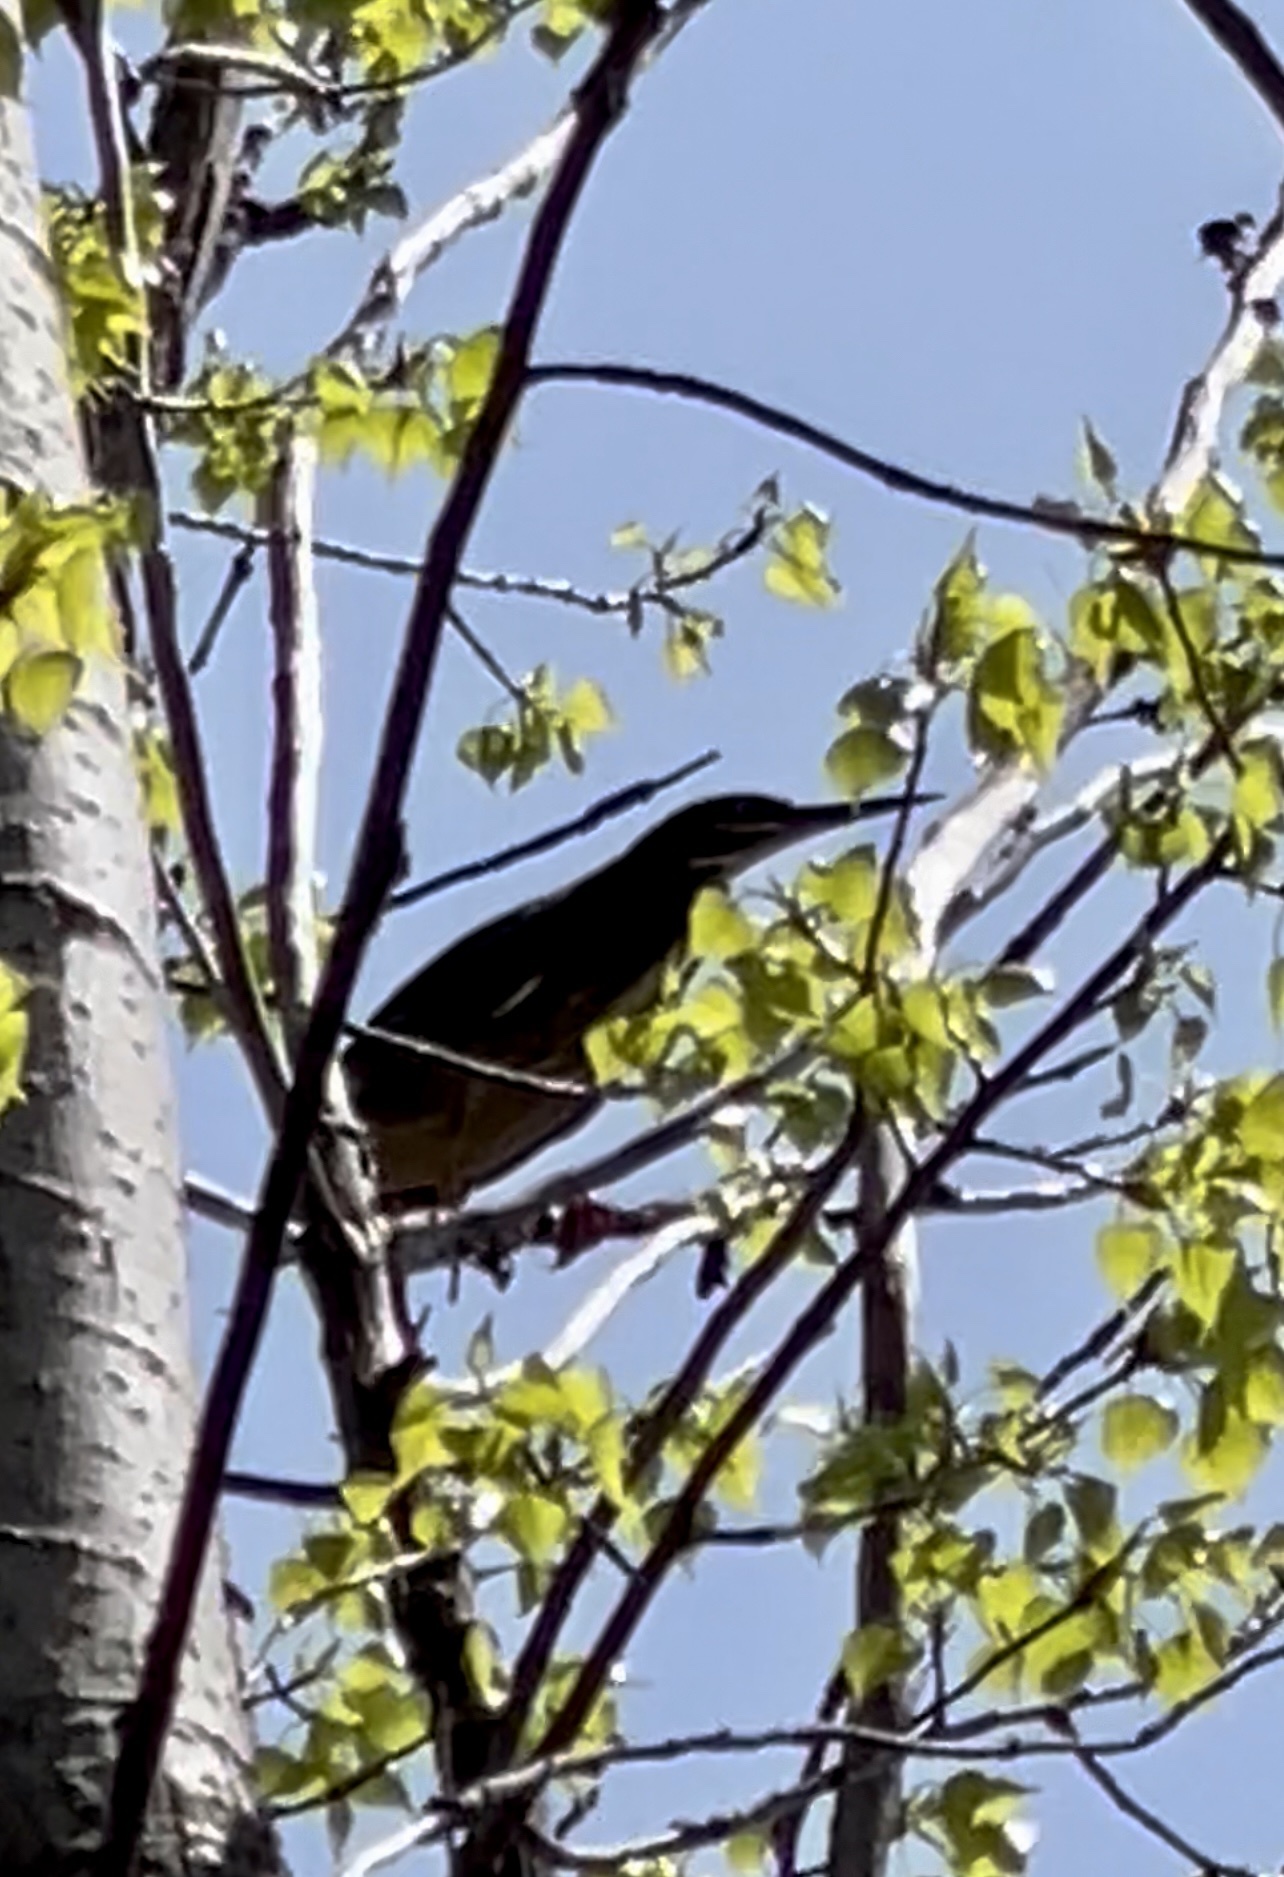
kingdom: Animalia
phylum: Chordata
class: Aves
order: Pelecaniformes
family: Ardeidae
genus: Butorides
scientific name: Butorides virescens
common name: Green heron
